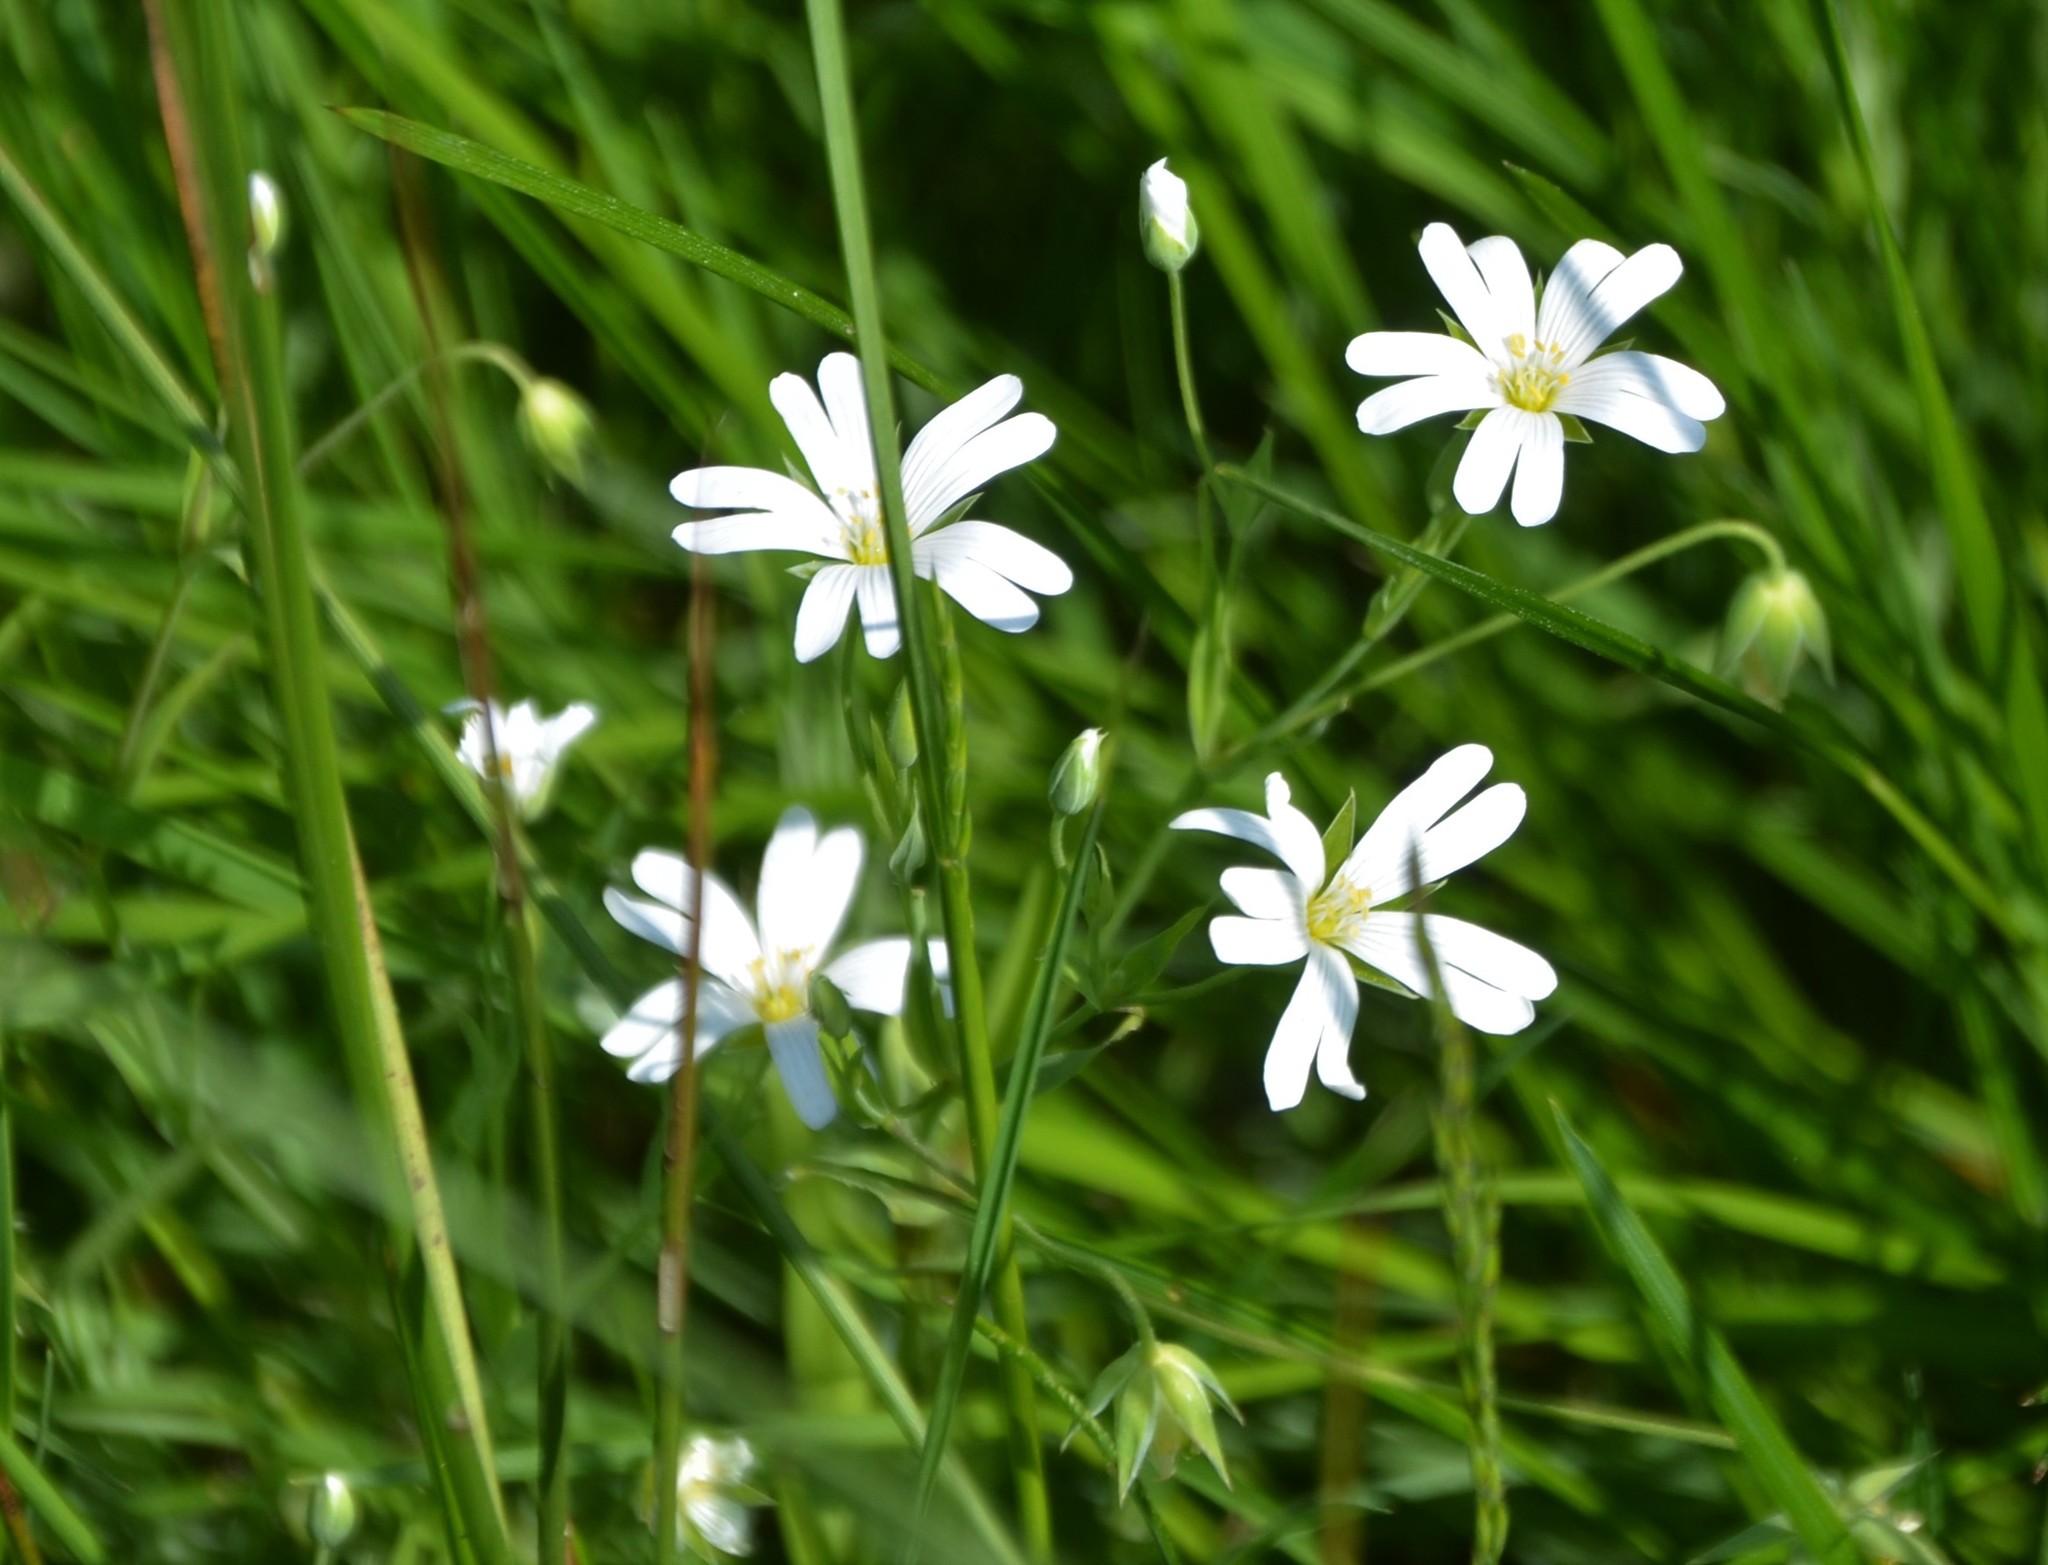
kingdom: Plantae
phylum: Tracheophyta
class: Magnoliopsida
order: Caryophyllales
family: Caryophyllaceae
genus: Rabelera
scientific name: Rabelera holostea
